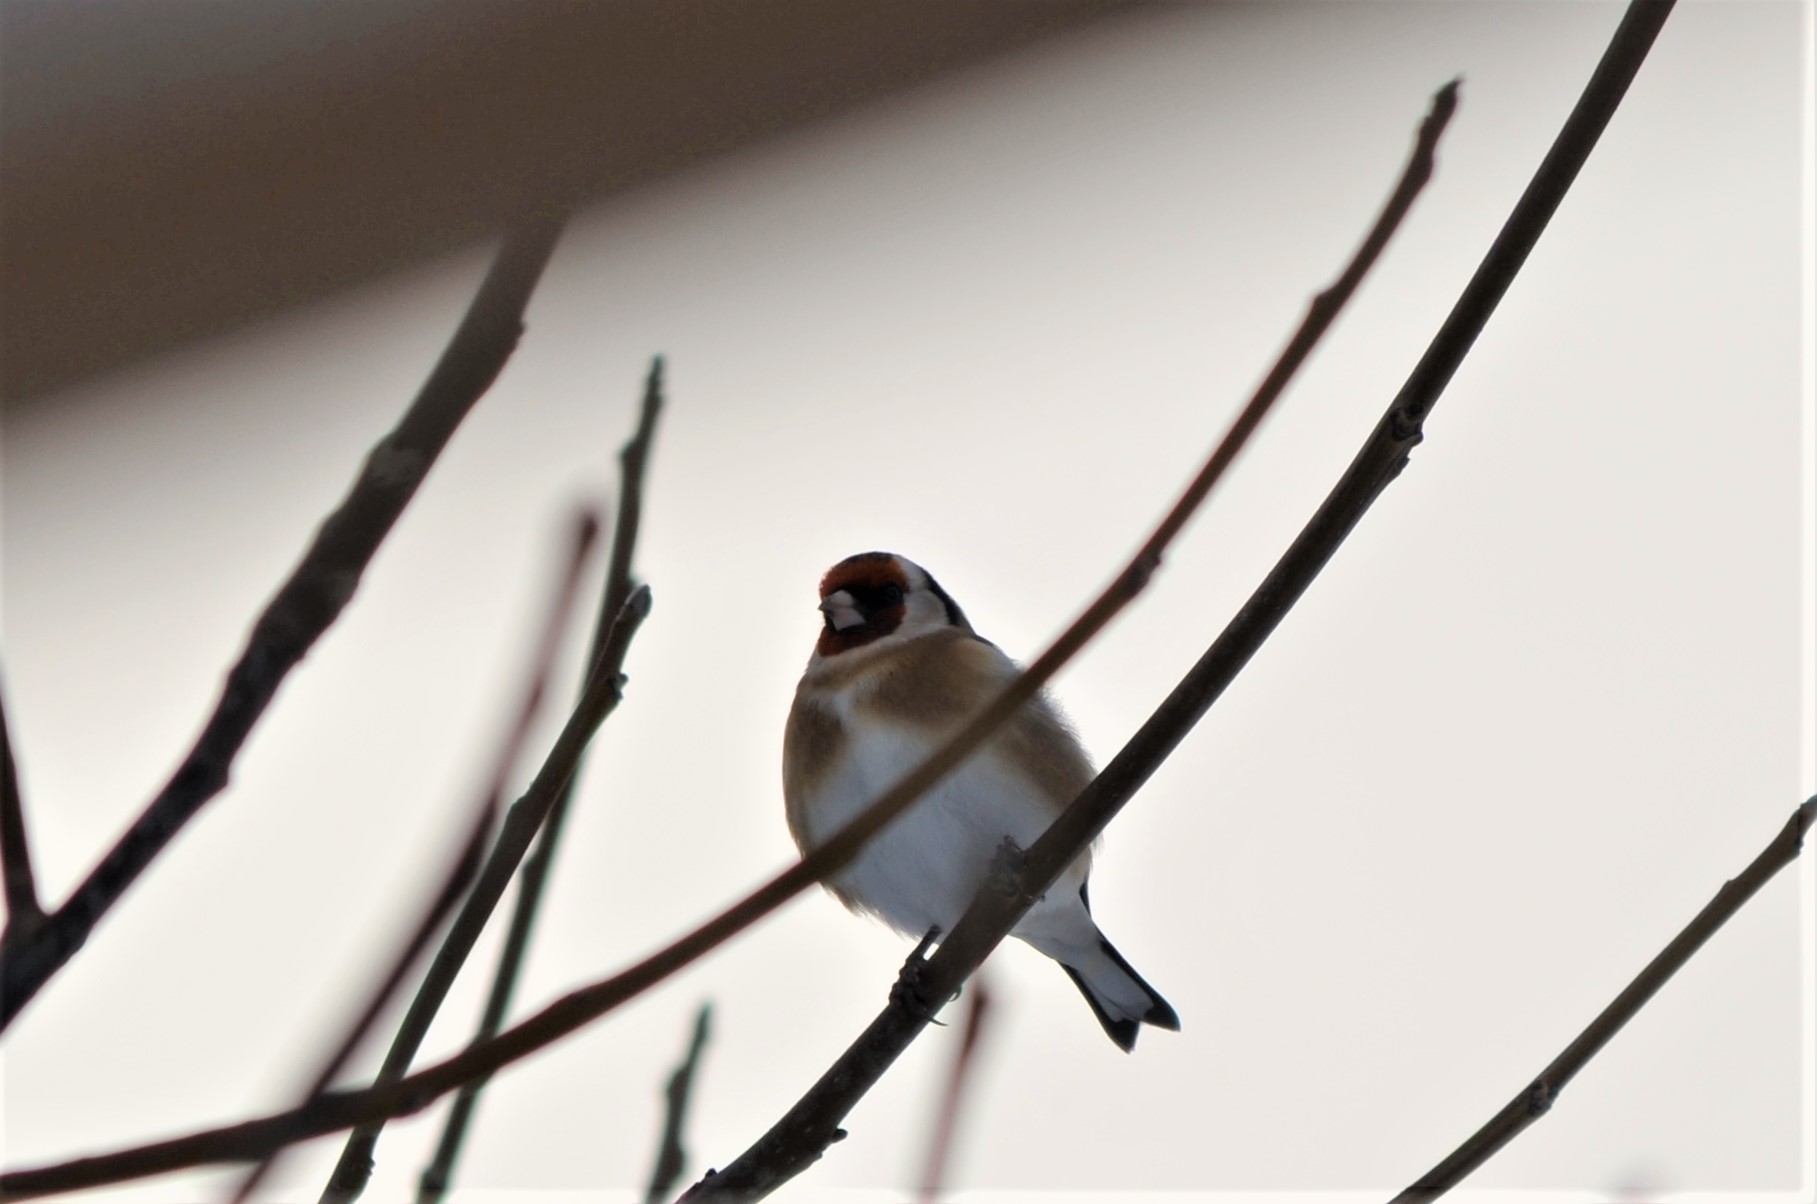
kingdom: Animalia
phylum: Chordata
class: Aves
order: Passeriformes
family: Fringillidae
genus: Carduelis
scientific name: Carduelis carduelis
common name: European goldfinch
